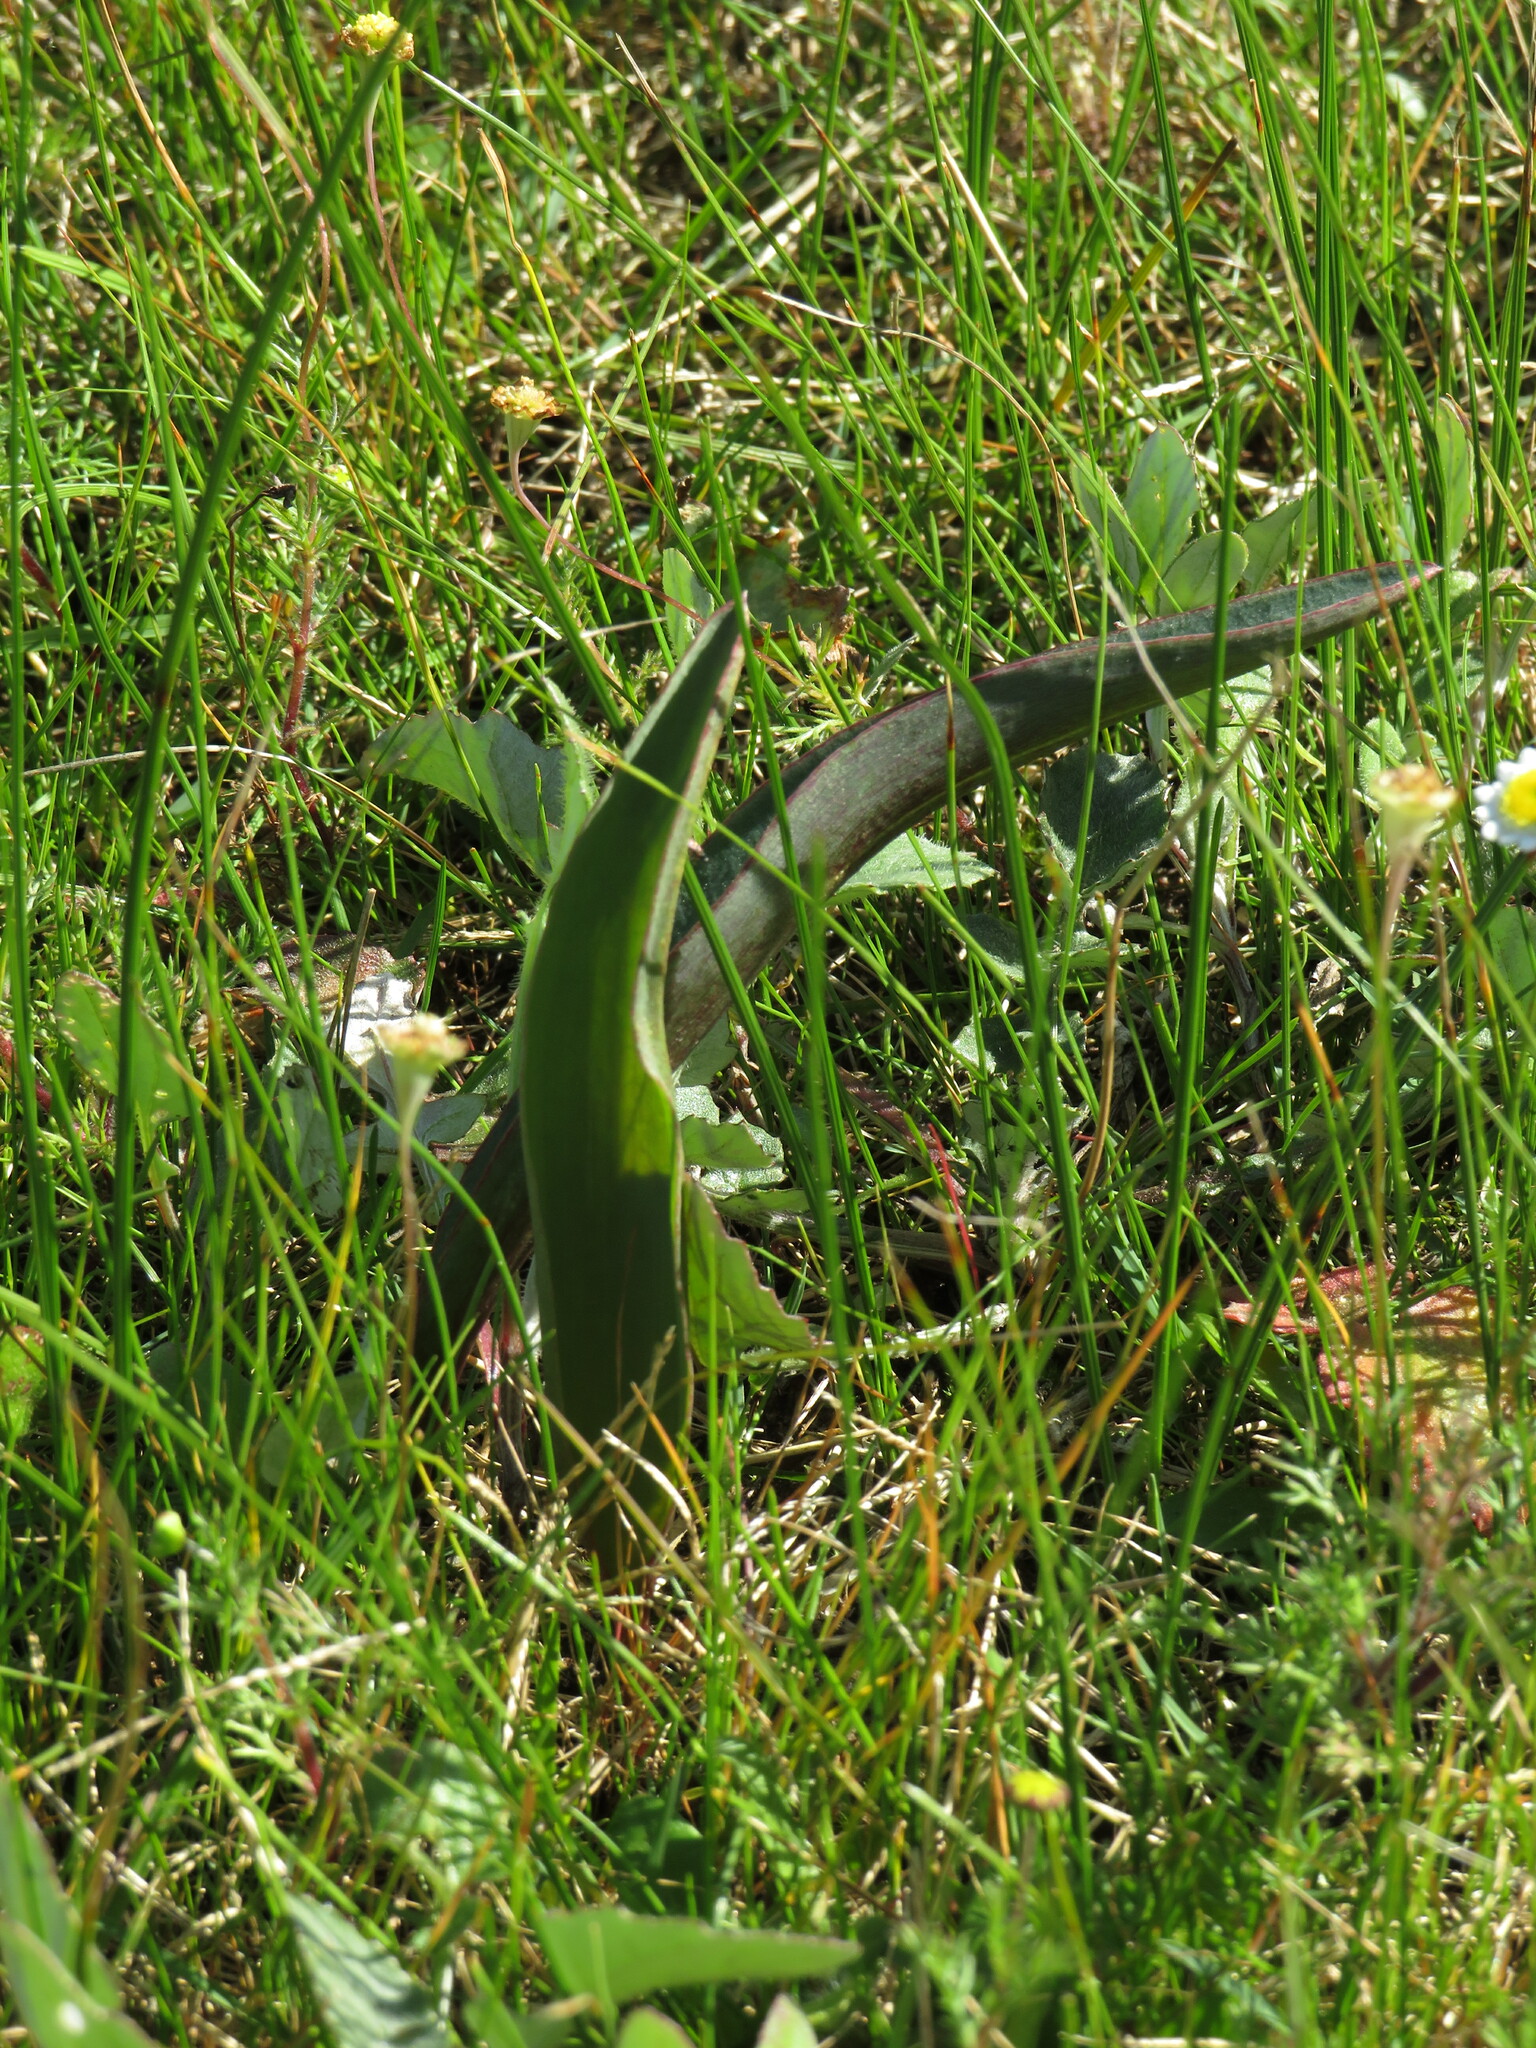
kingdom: Plantae
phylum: Tracheophyta
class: Liliopsida
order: Asparagales
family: Asparagaceae
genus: Eriospermum
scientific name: Eriospermum lanceifolium
